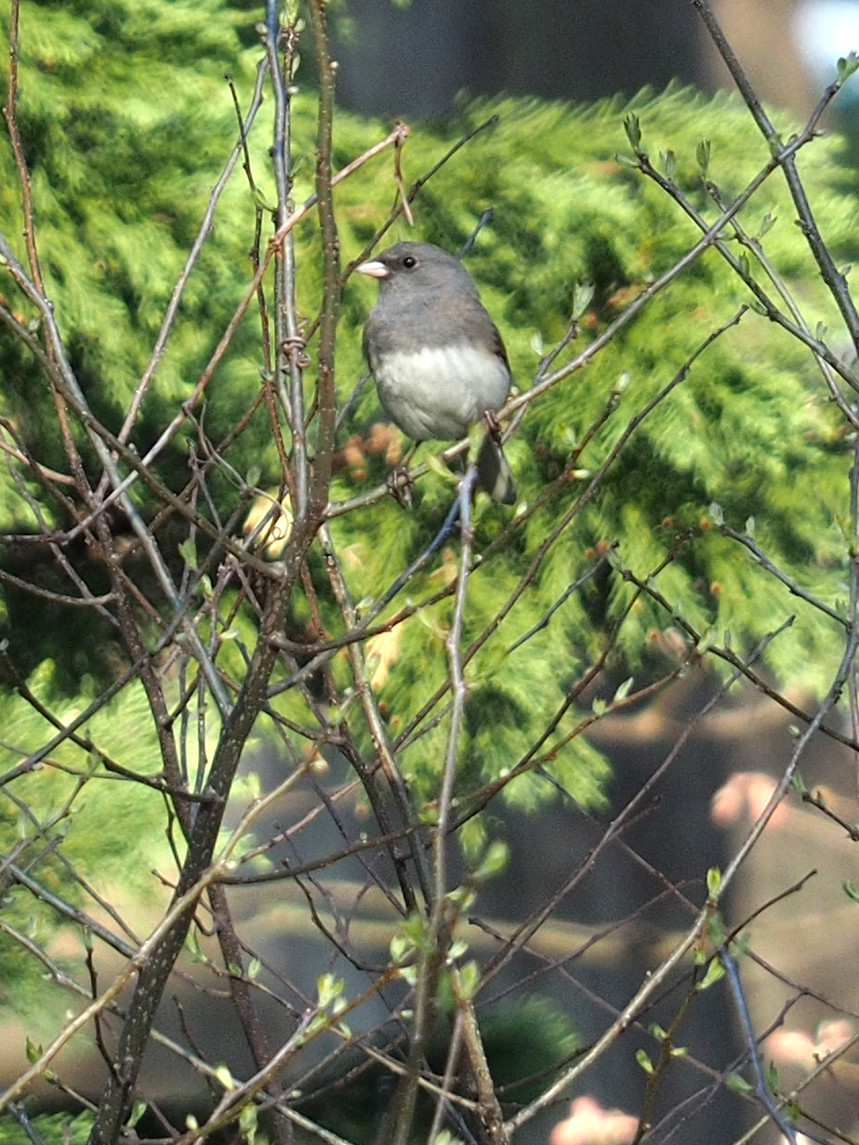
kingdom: Animalia
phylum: Chordata
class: Aves
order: Passeriformes
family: Passerellidae
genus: Junco
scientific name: Junco hyemalis
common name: Dark-eyed junco
